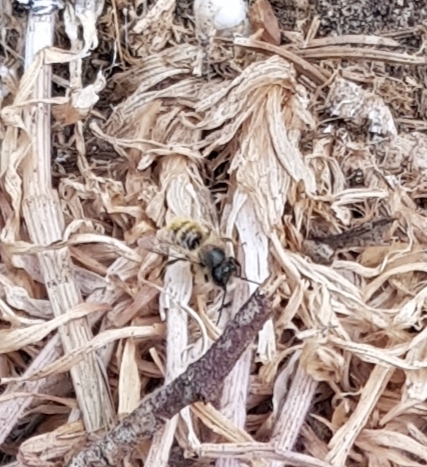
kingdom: Animalia
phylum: Arthropoda
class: Insecta
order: Hymenoptera
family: Andrenidae
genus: Andrena
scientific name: Andrena fulva
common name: Tawny mining bee
